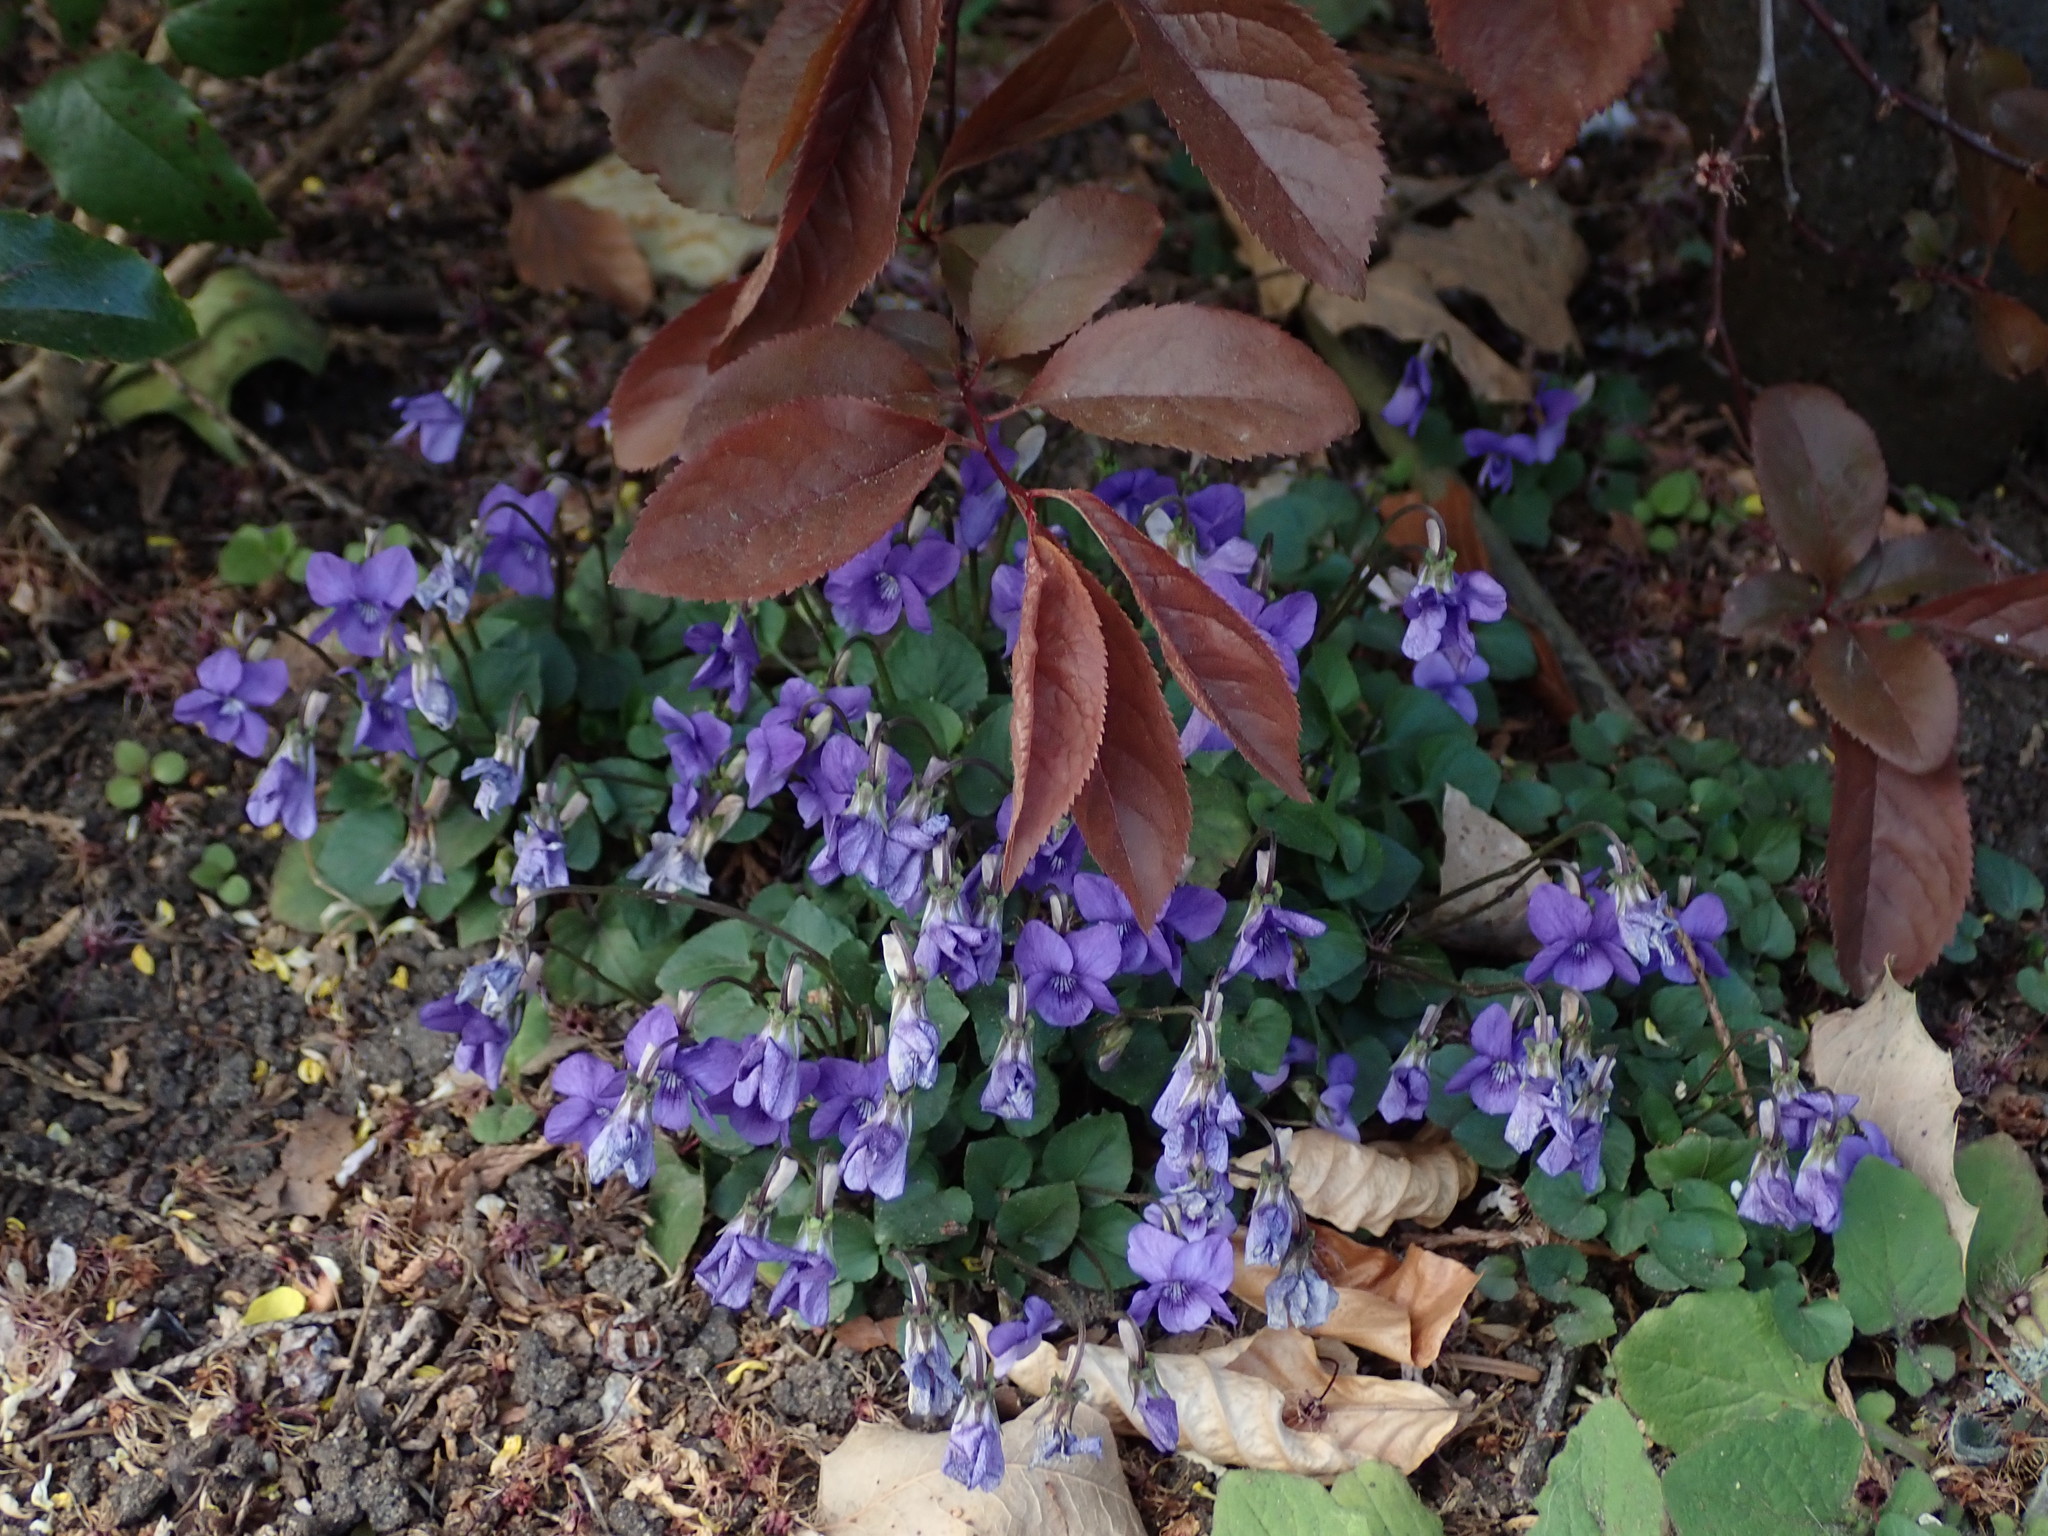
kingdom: Plantae
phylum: Tracheophyta
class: Magnoliopsida
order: Malpighiales
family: Violaceae
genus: Viola
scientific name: Viola riviniana
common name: Common dog-violet
